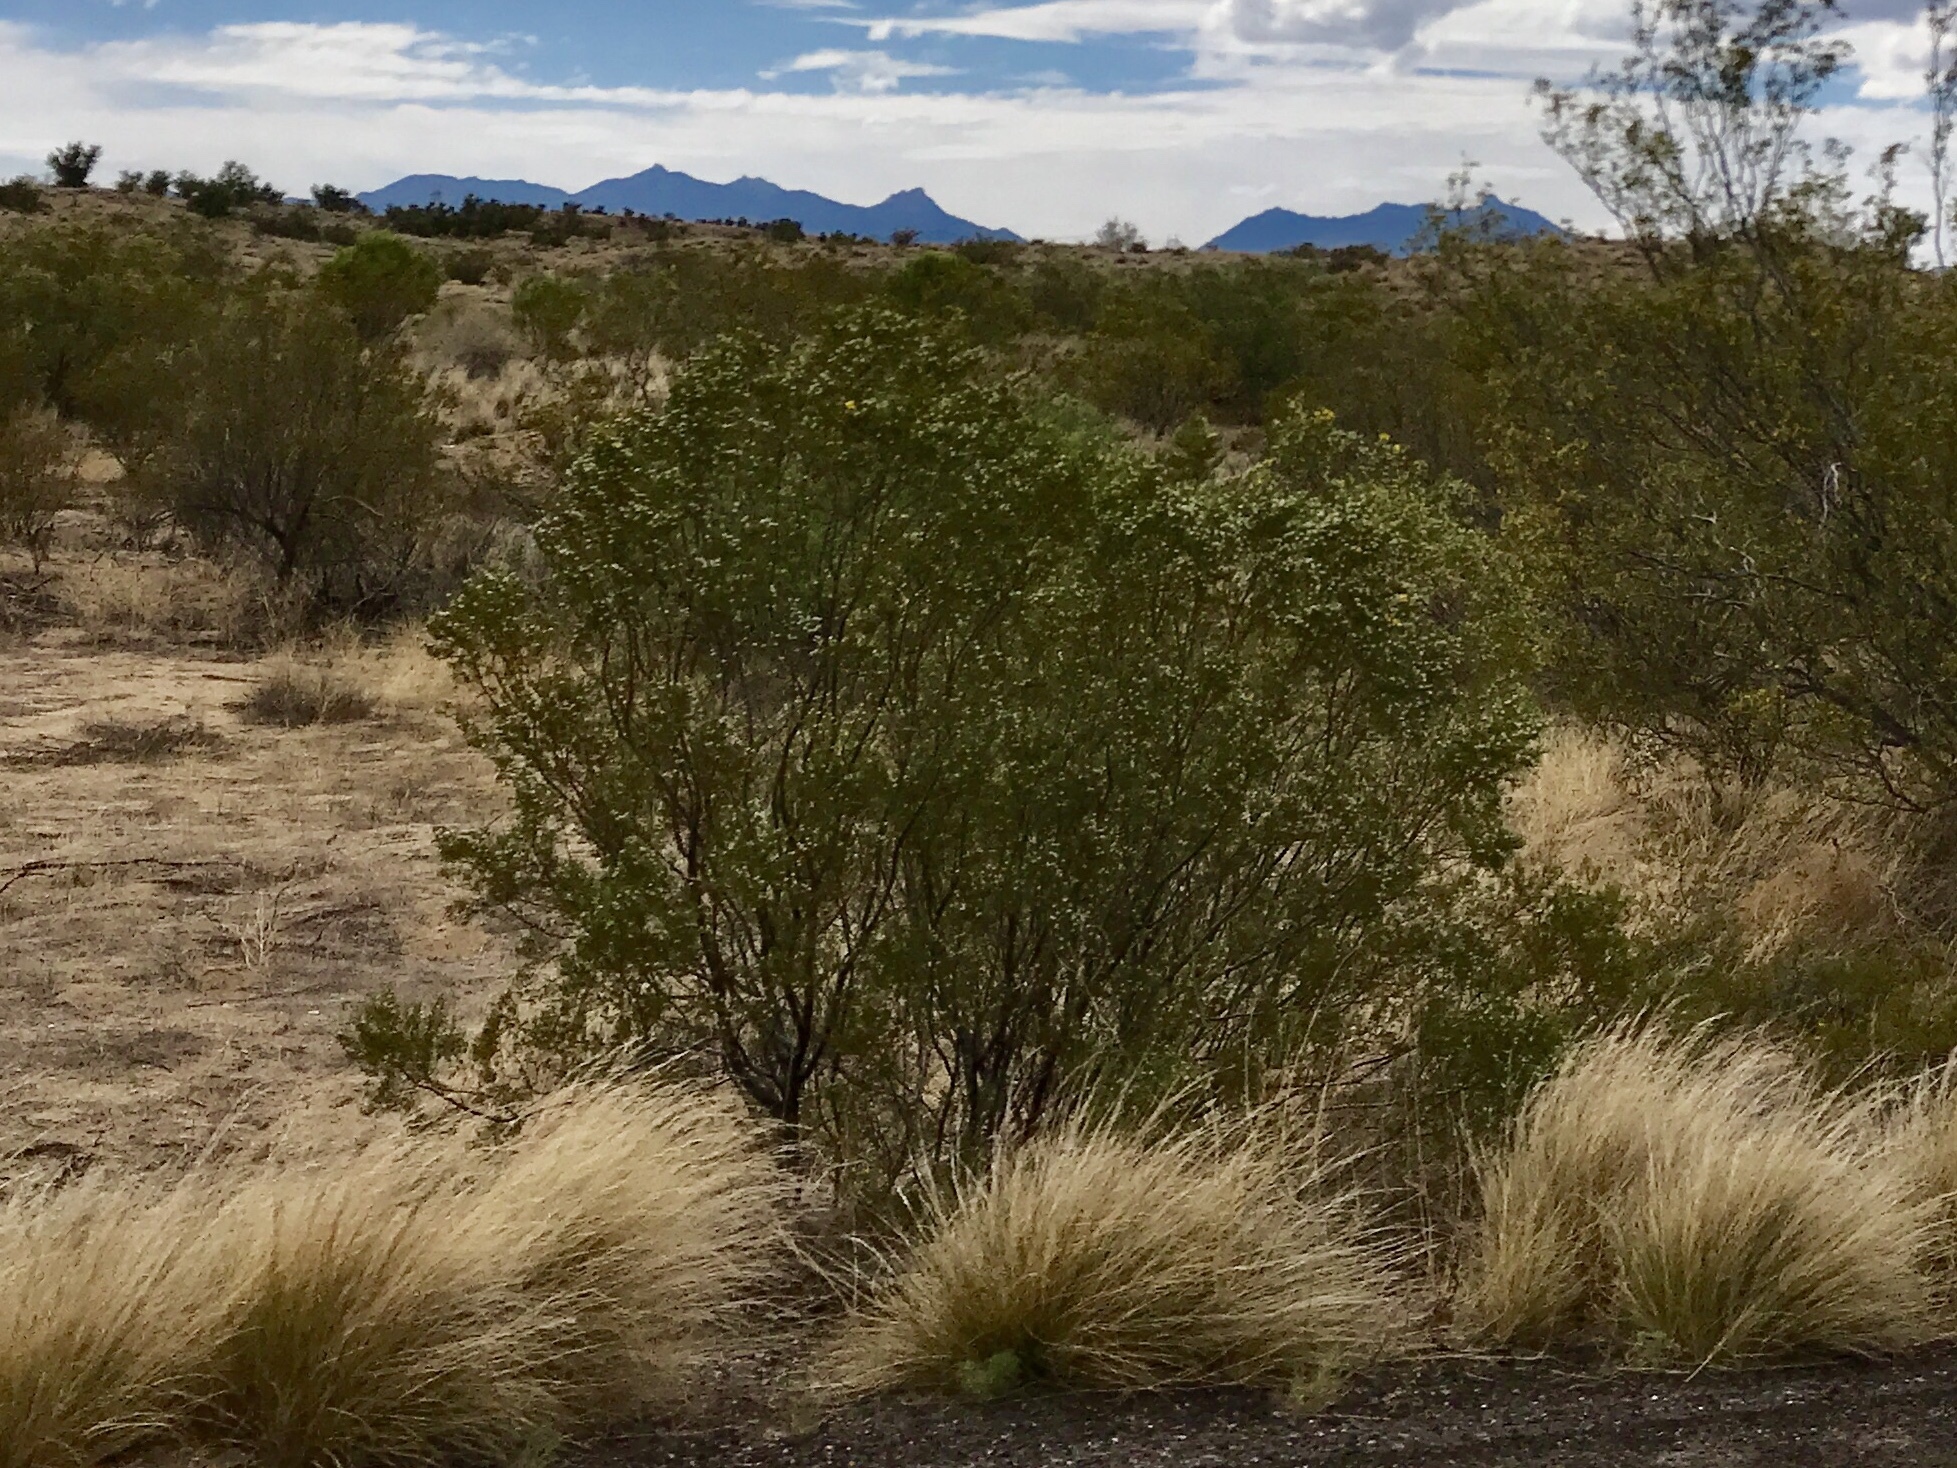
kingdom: Plantae
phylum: Tracheophyta
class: Magnoliopsida
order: Zygophyllales
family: Zygophyllaceae
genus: Larrea
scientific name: Larrea tridentata
